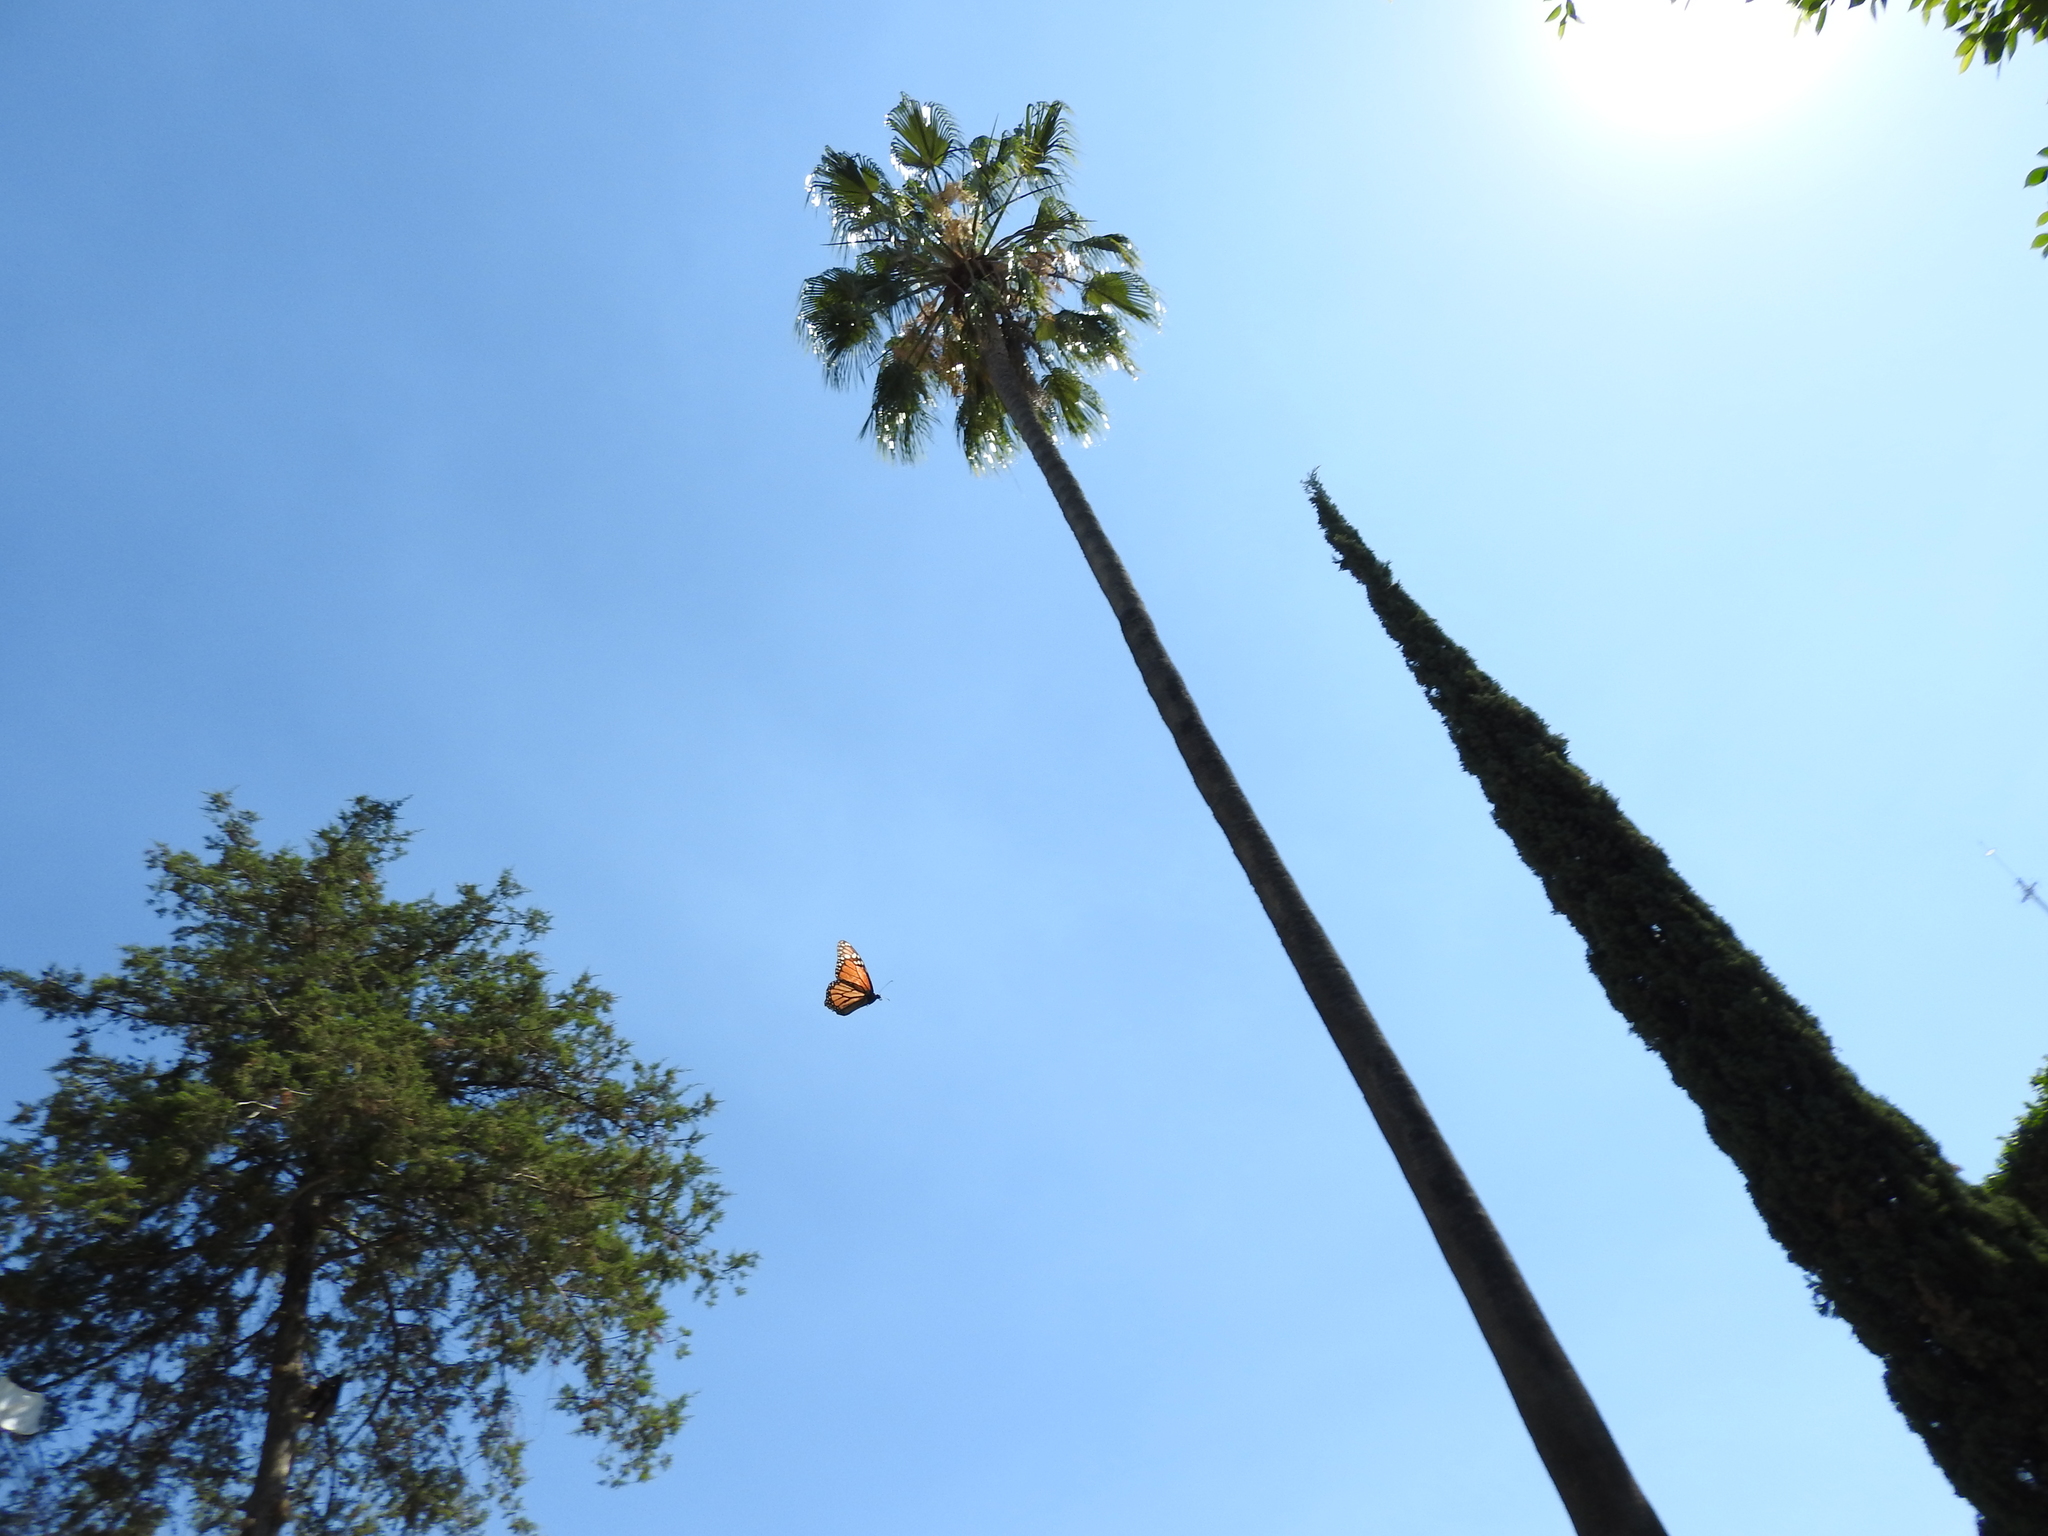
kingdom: Animalia
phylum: Arthropoda
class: Insecta
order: Lepidoptera
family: Nymphalidae
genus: Danaus
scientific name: Danaus plexippus
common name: Monarch
